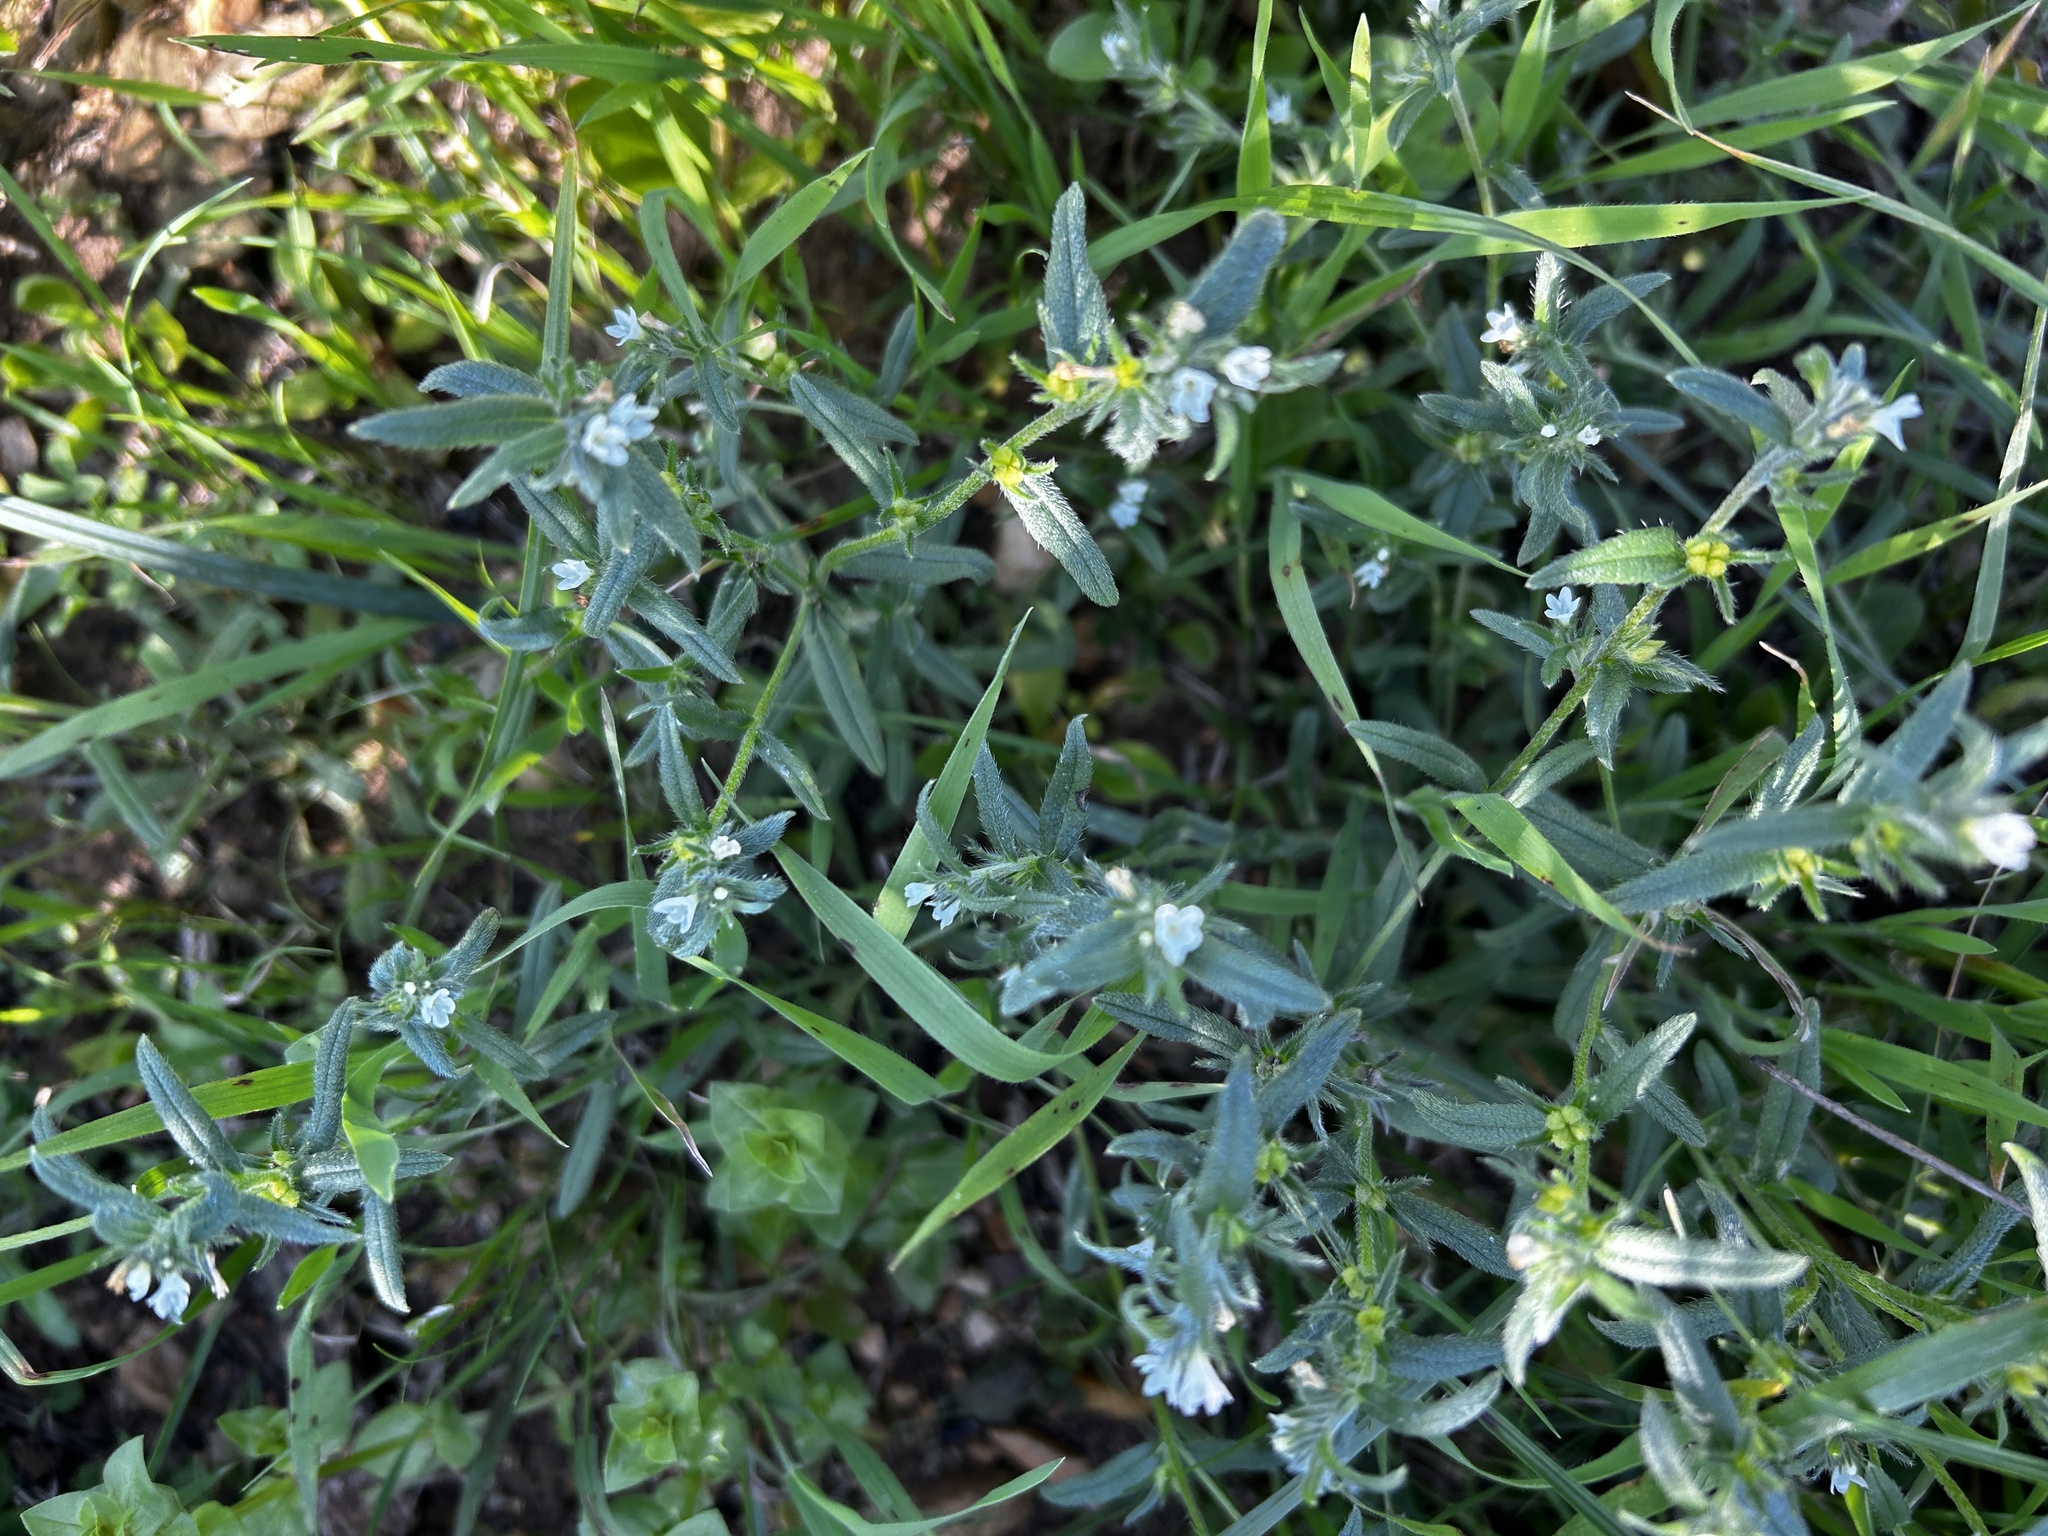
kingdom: Plantae
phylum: Tracheophyta
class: Magnoliopsida
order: Boraginales
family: Boraginaceae
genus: Buglossoides
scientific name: Buglossoides arvensis
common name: Corn gromwell
